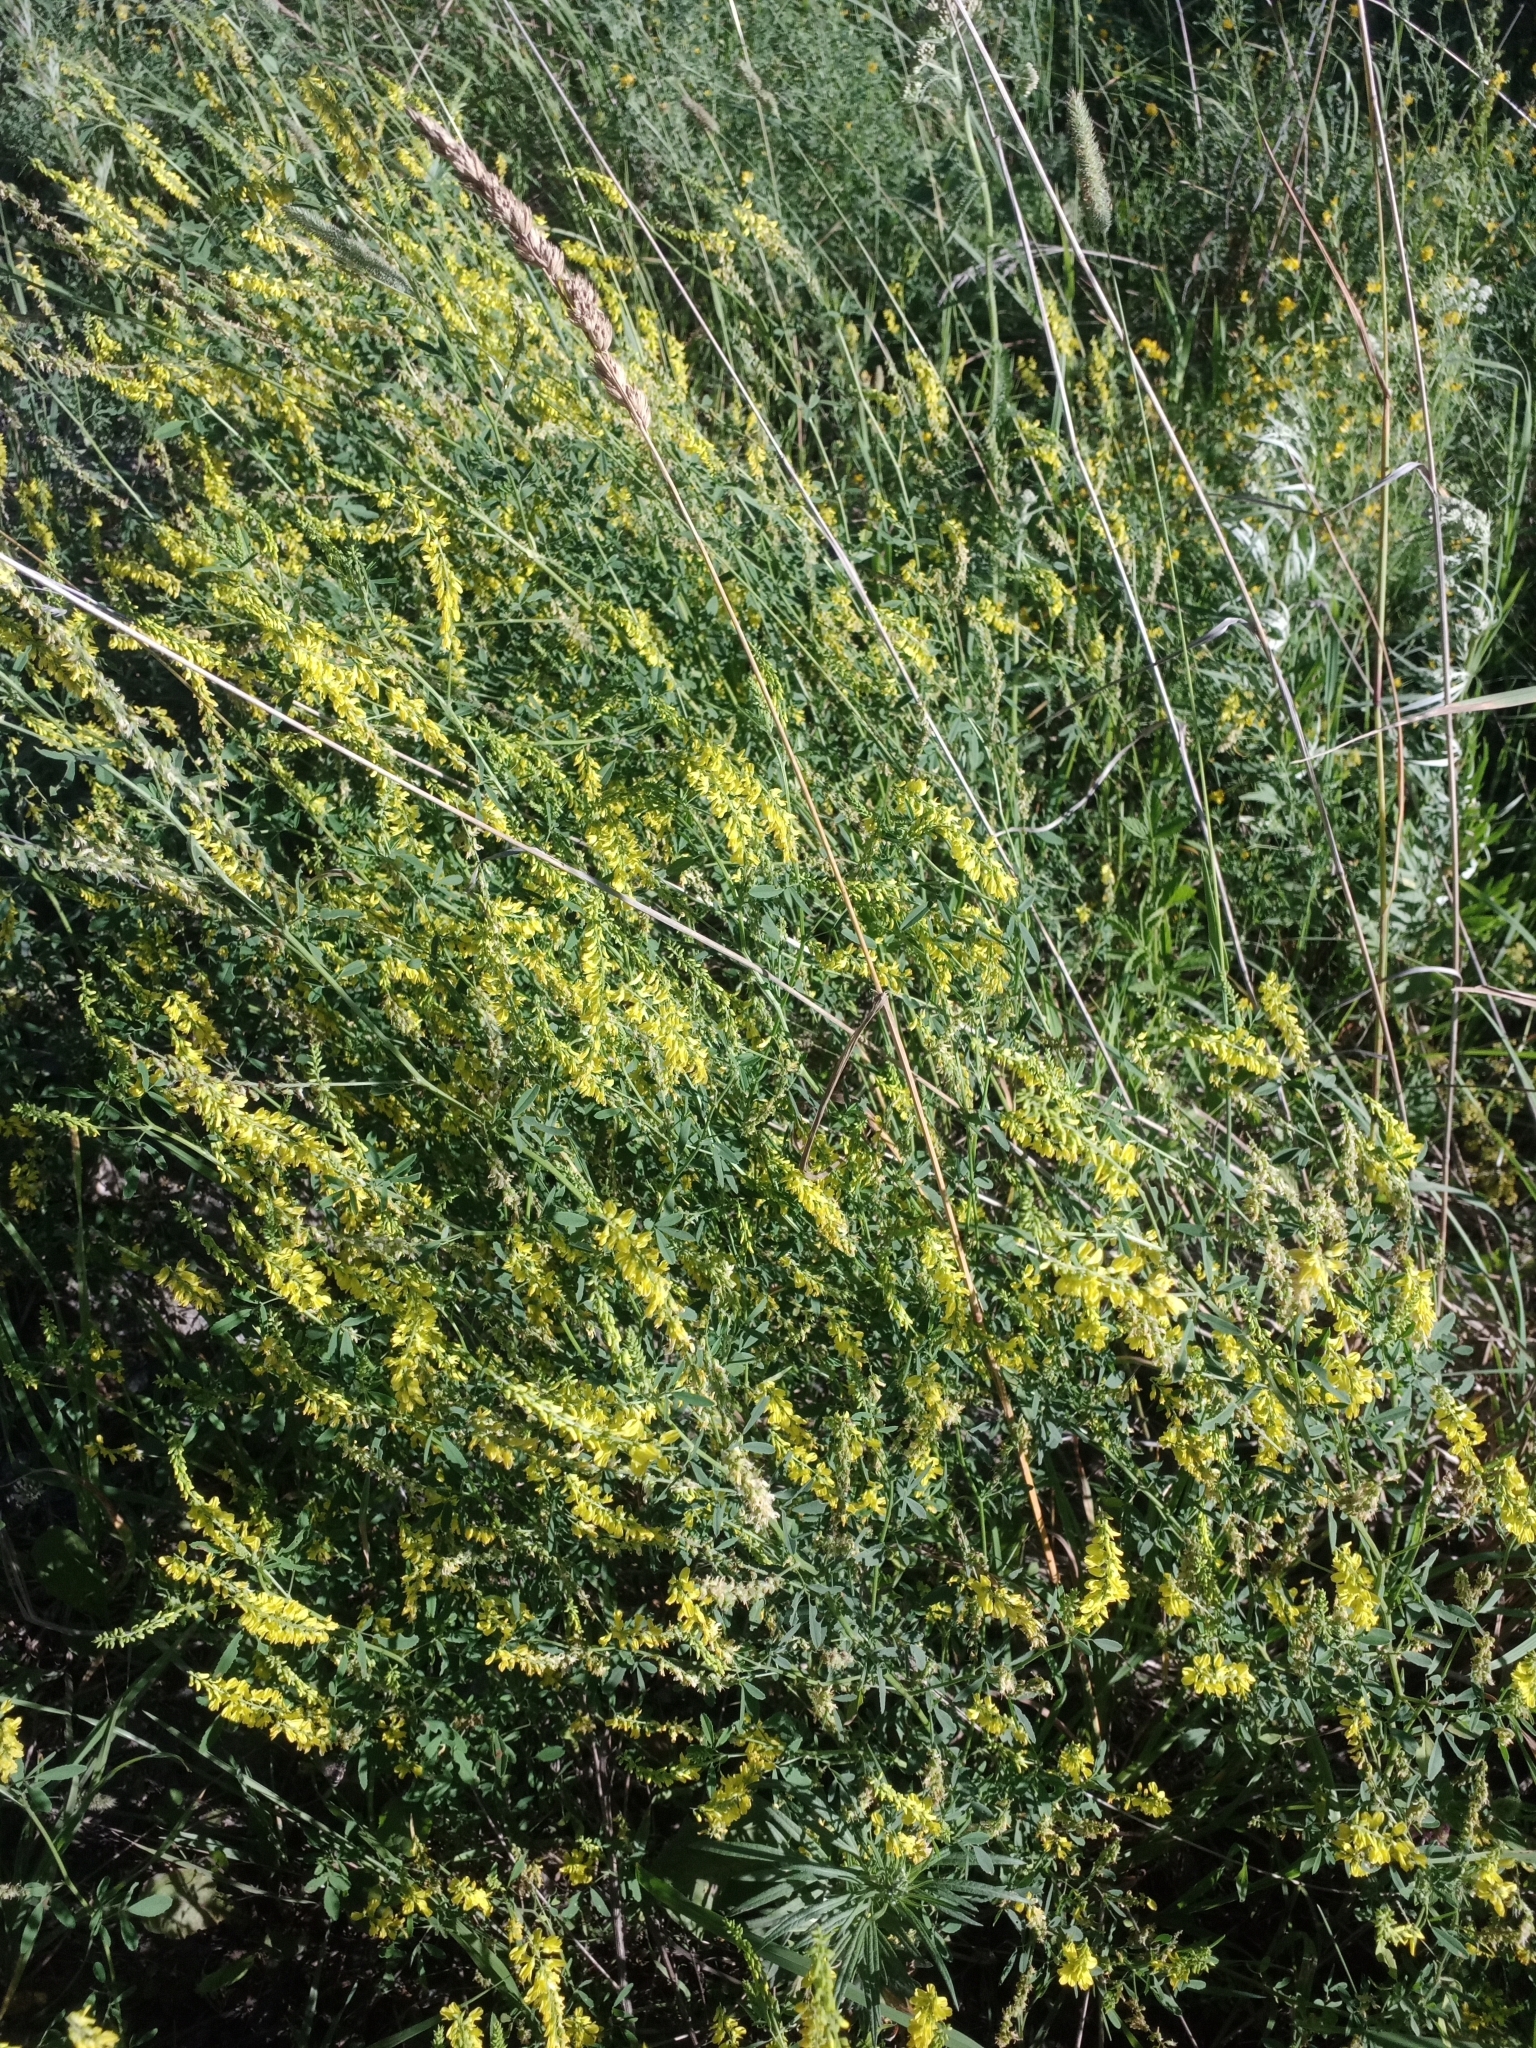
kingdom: Plantae
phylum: Tracheophyta
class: Magnoliopsida
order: Fabales
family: Fabaceae
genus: Melilotus
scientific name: Melilotus officinalis
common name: Sweetclover
